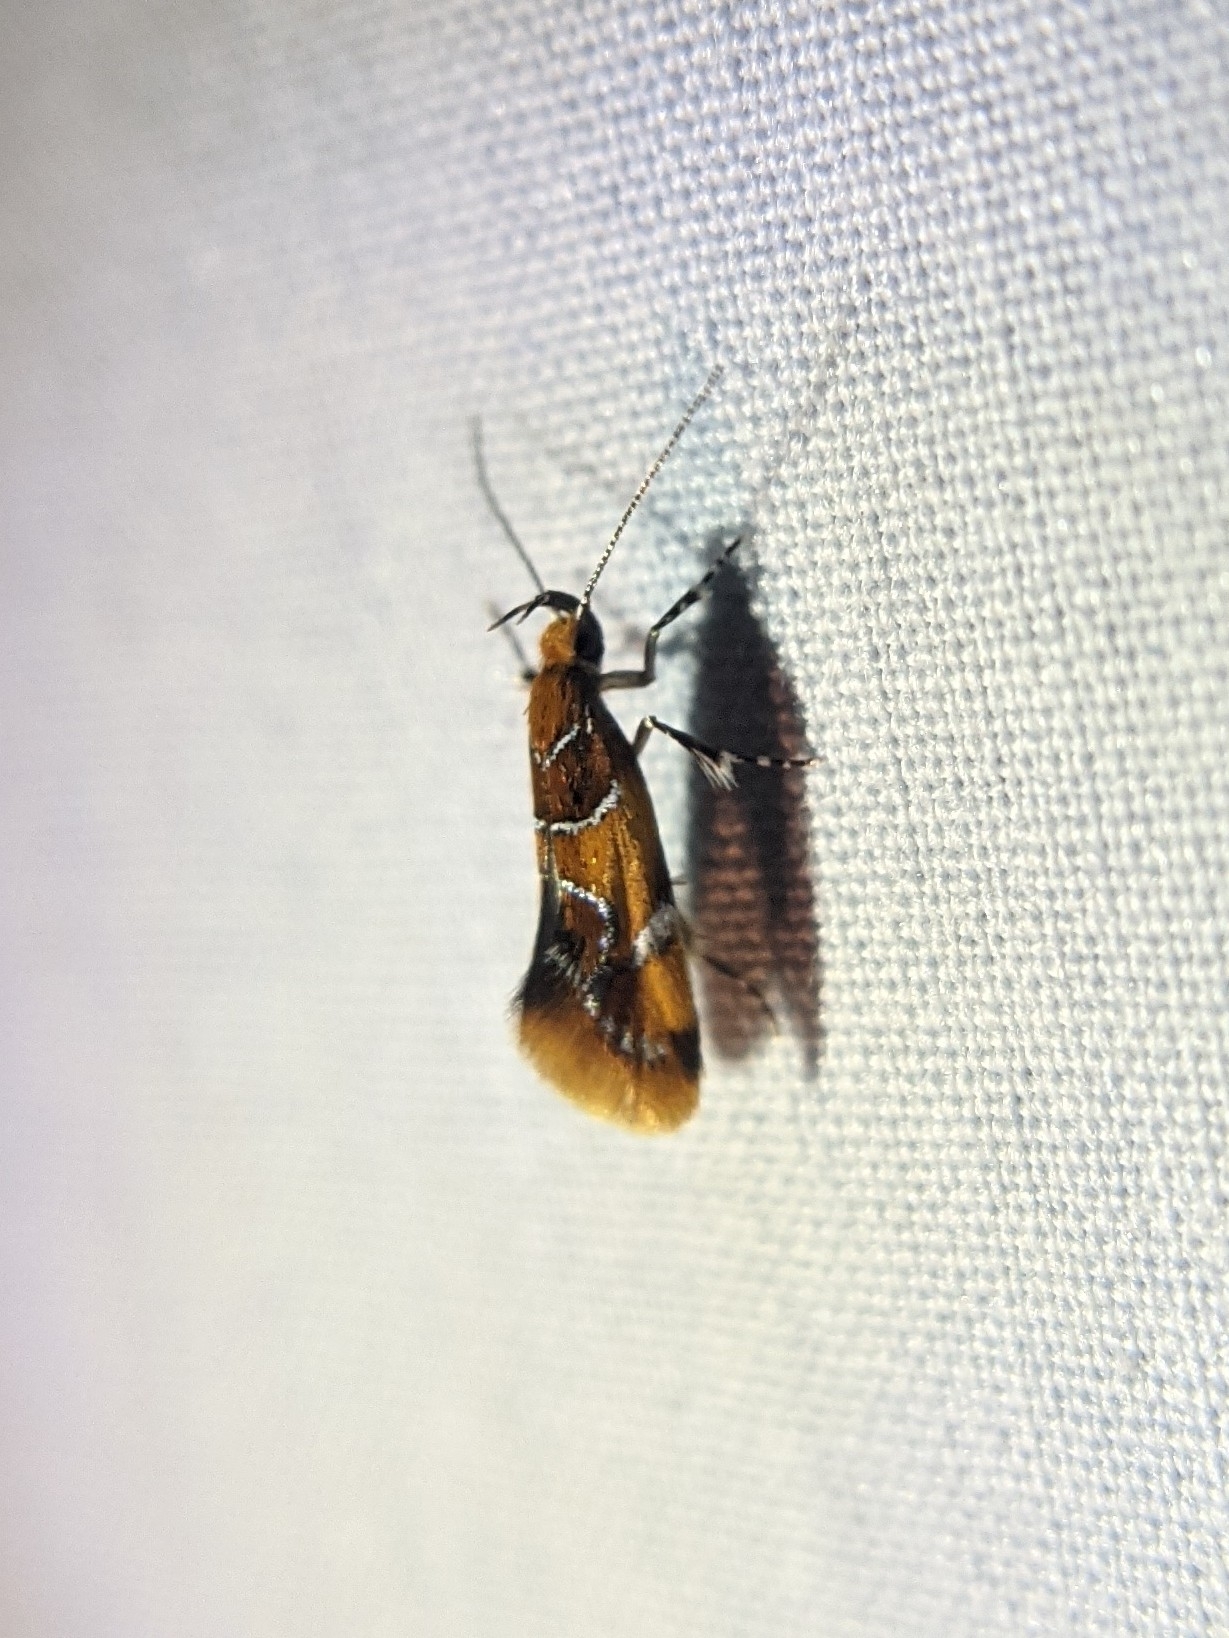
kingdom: Animalia
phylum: Arthropoda
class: Insecta
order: Lepidoptera
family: Oecophoridae
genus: Callima
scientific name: Callima argenticinctella
